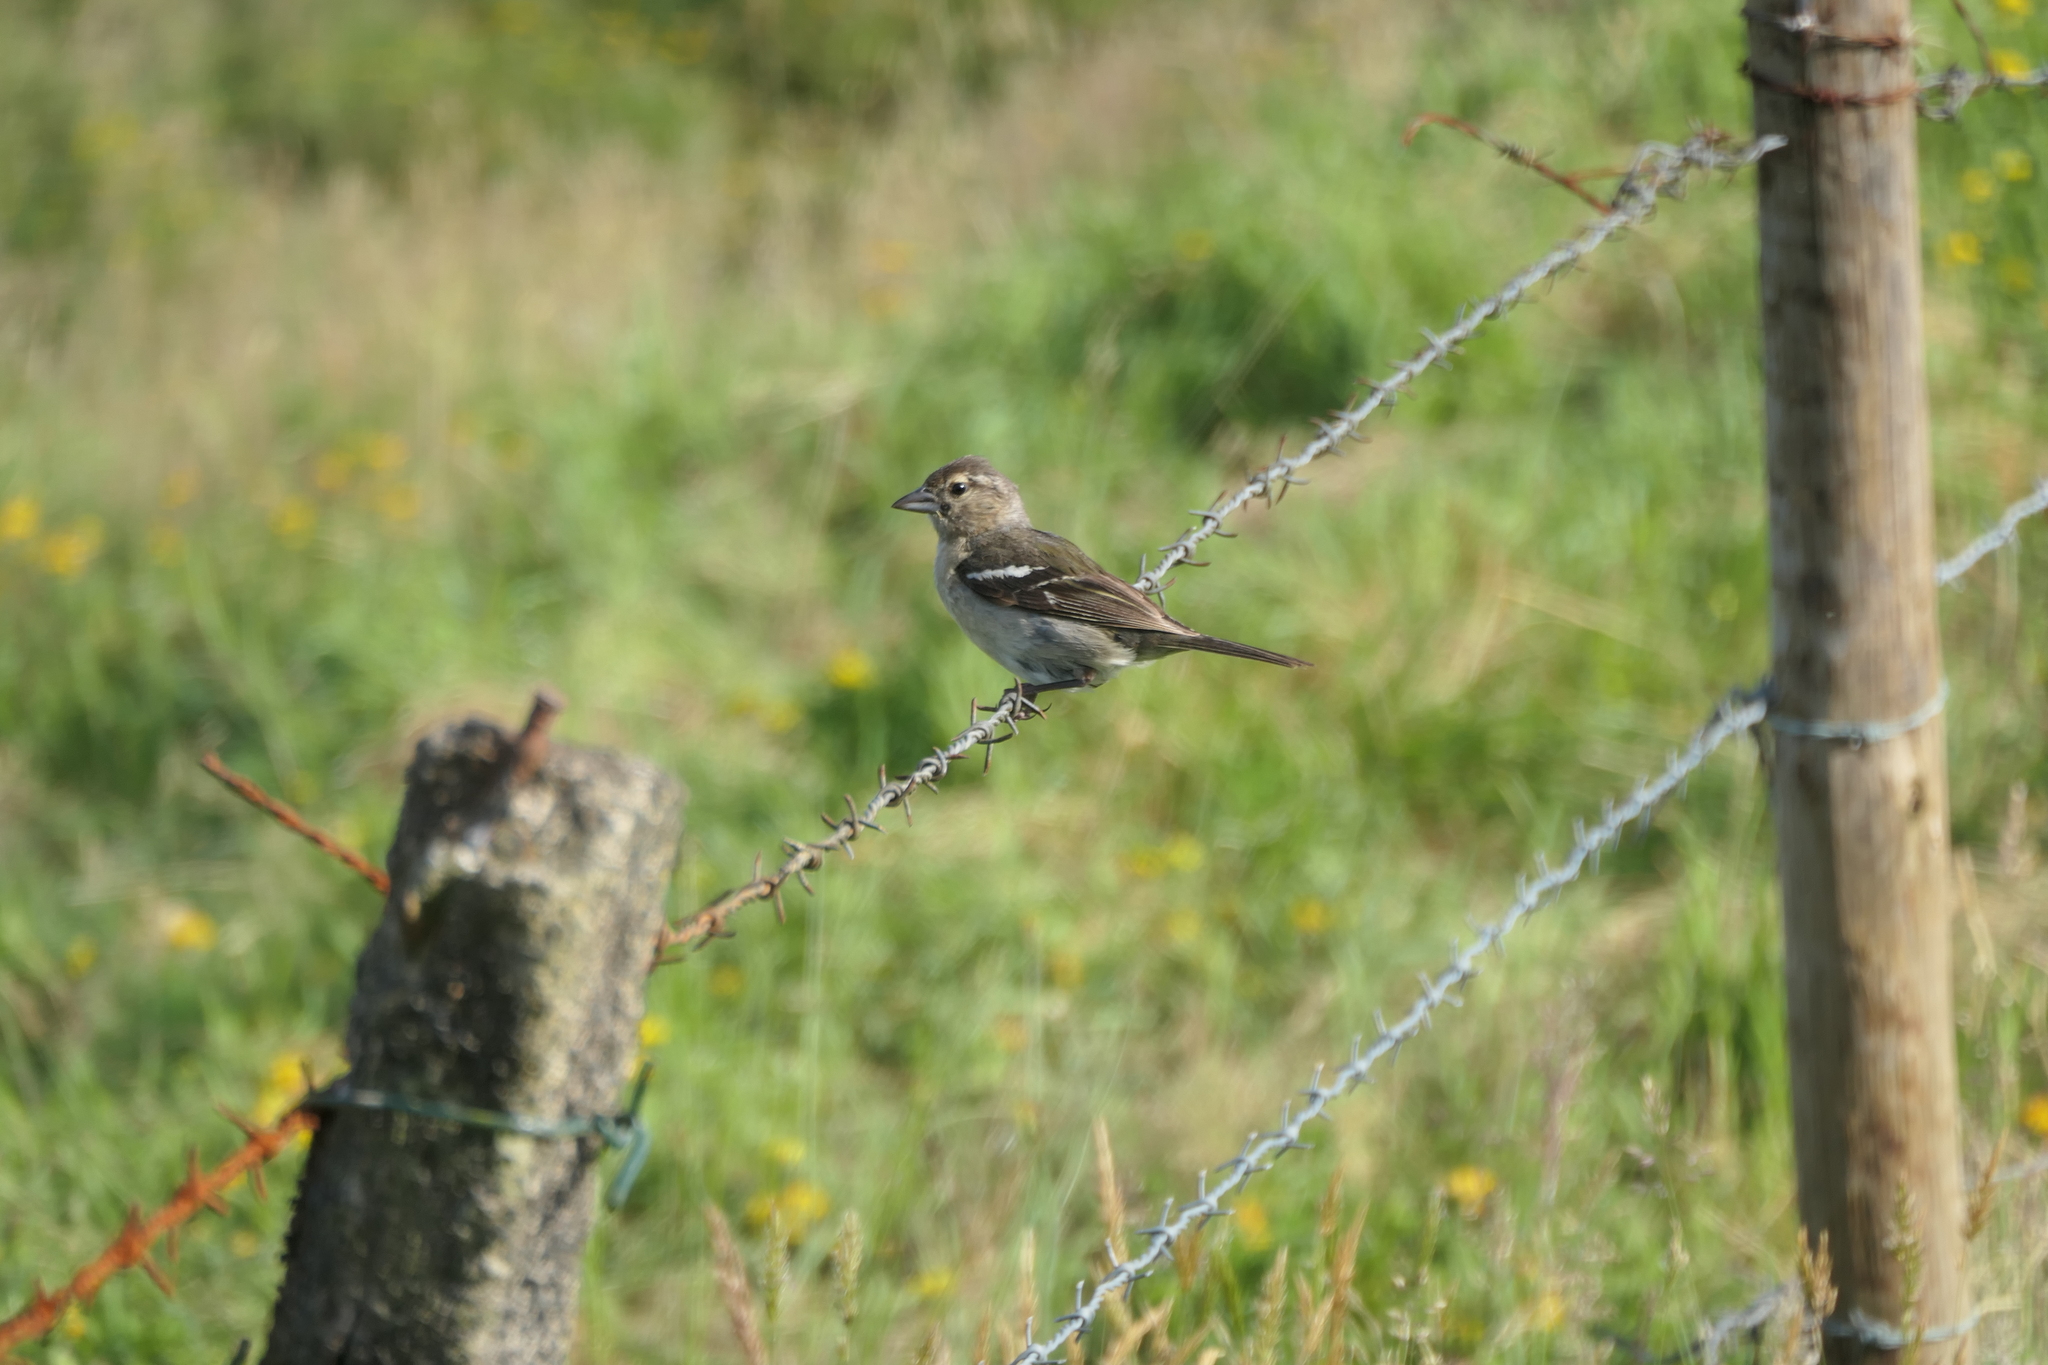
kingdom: Animalia
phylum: Chordata
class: Aves
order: Passeriformes
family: Fringillidae
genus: Fringilla
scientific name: Fringilla moreletti
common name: Azores chaffinch
